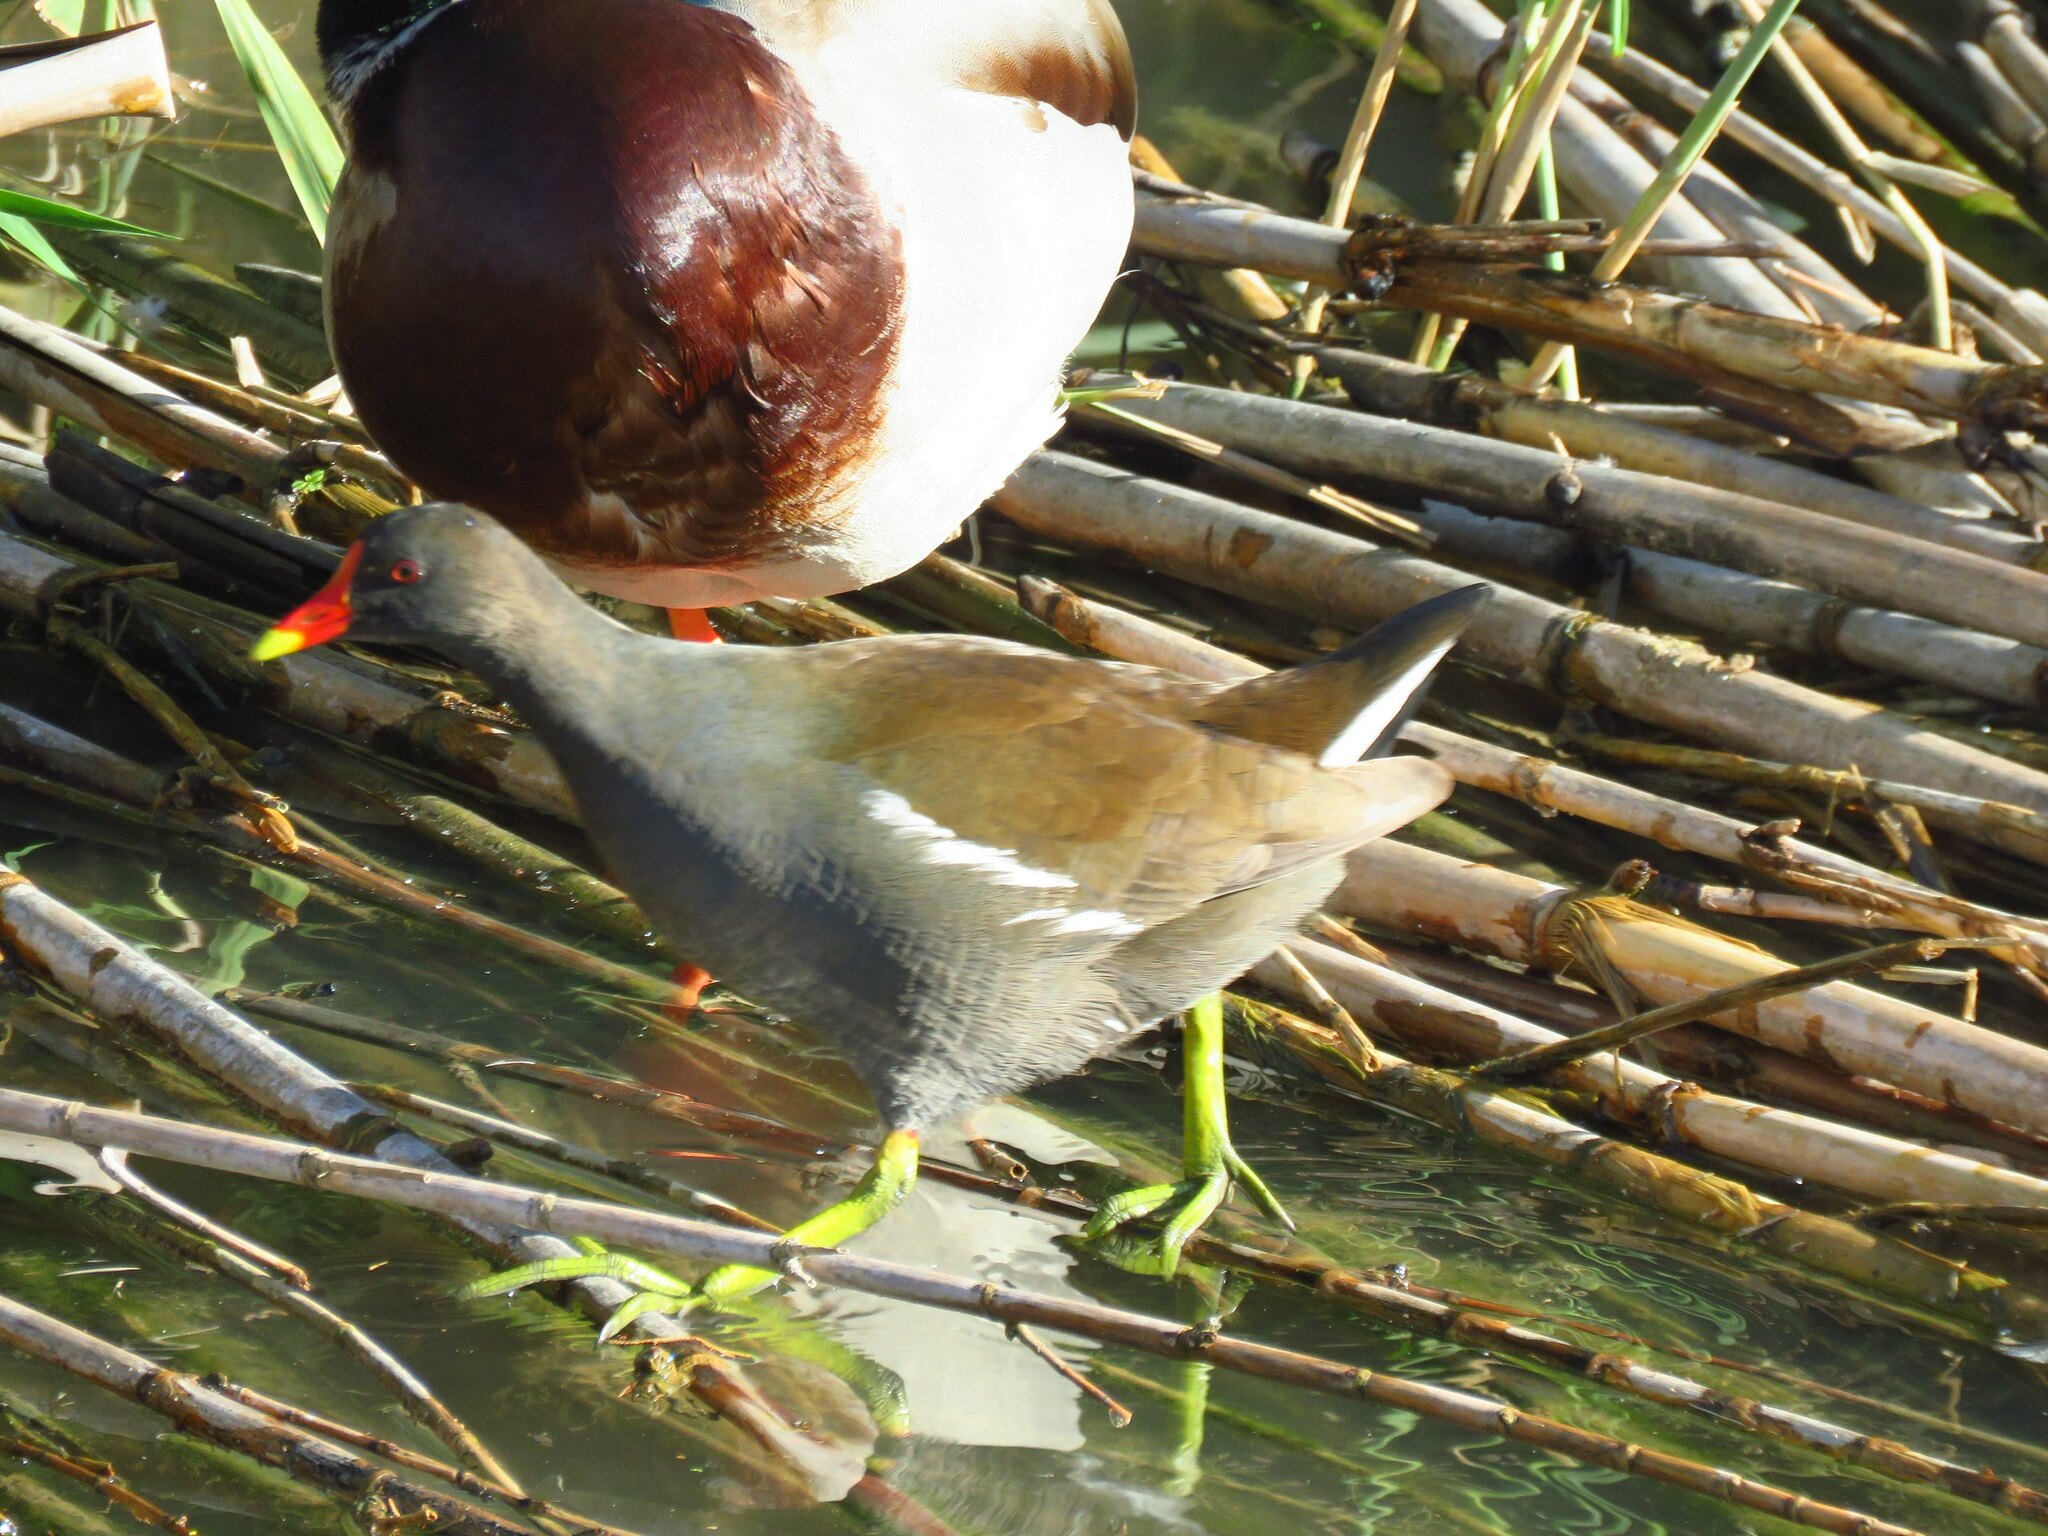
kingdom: Animalia
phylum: Chordata
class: Aves
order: Gruiformes
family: Rallidae
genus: Gallinula
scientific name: Gallinula chloropus
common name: Common moorhen
